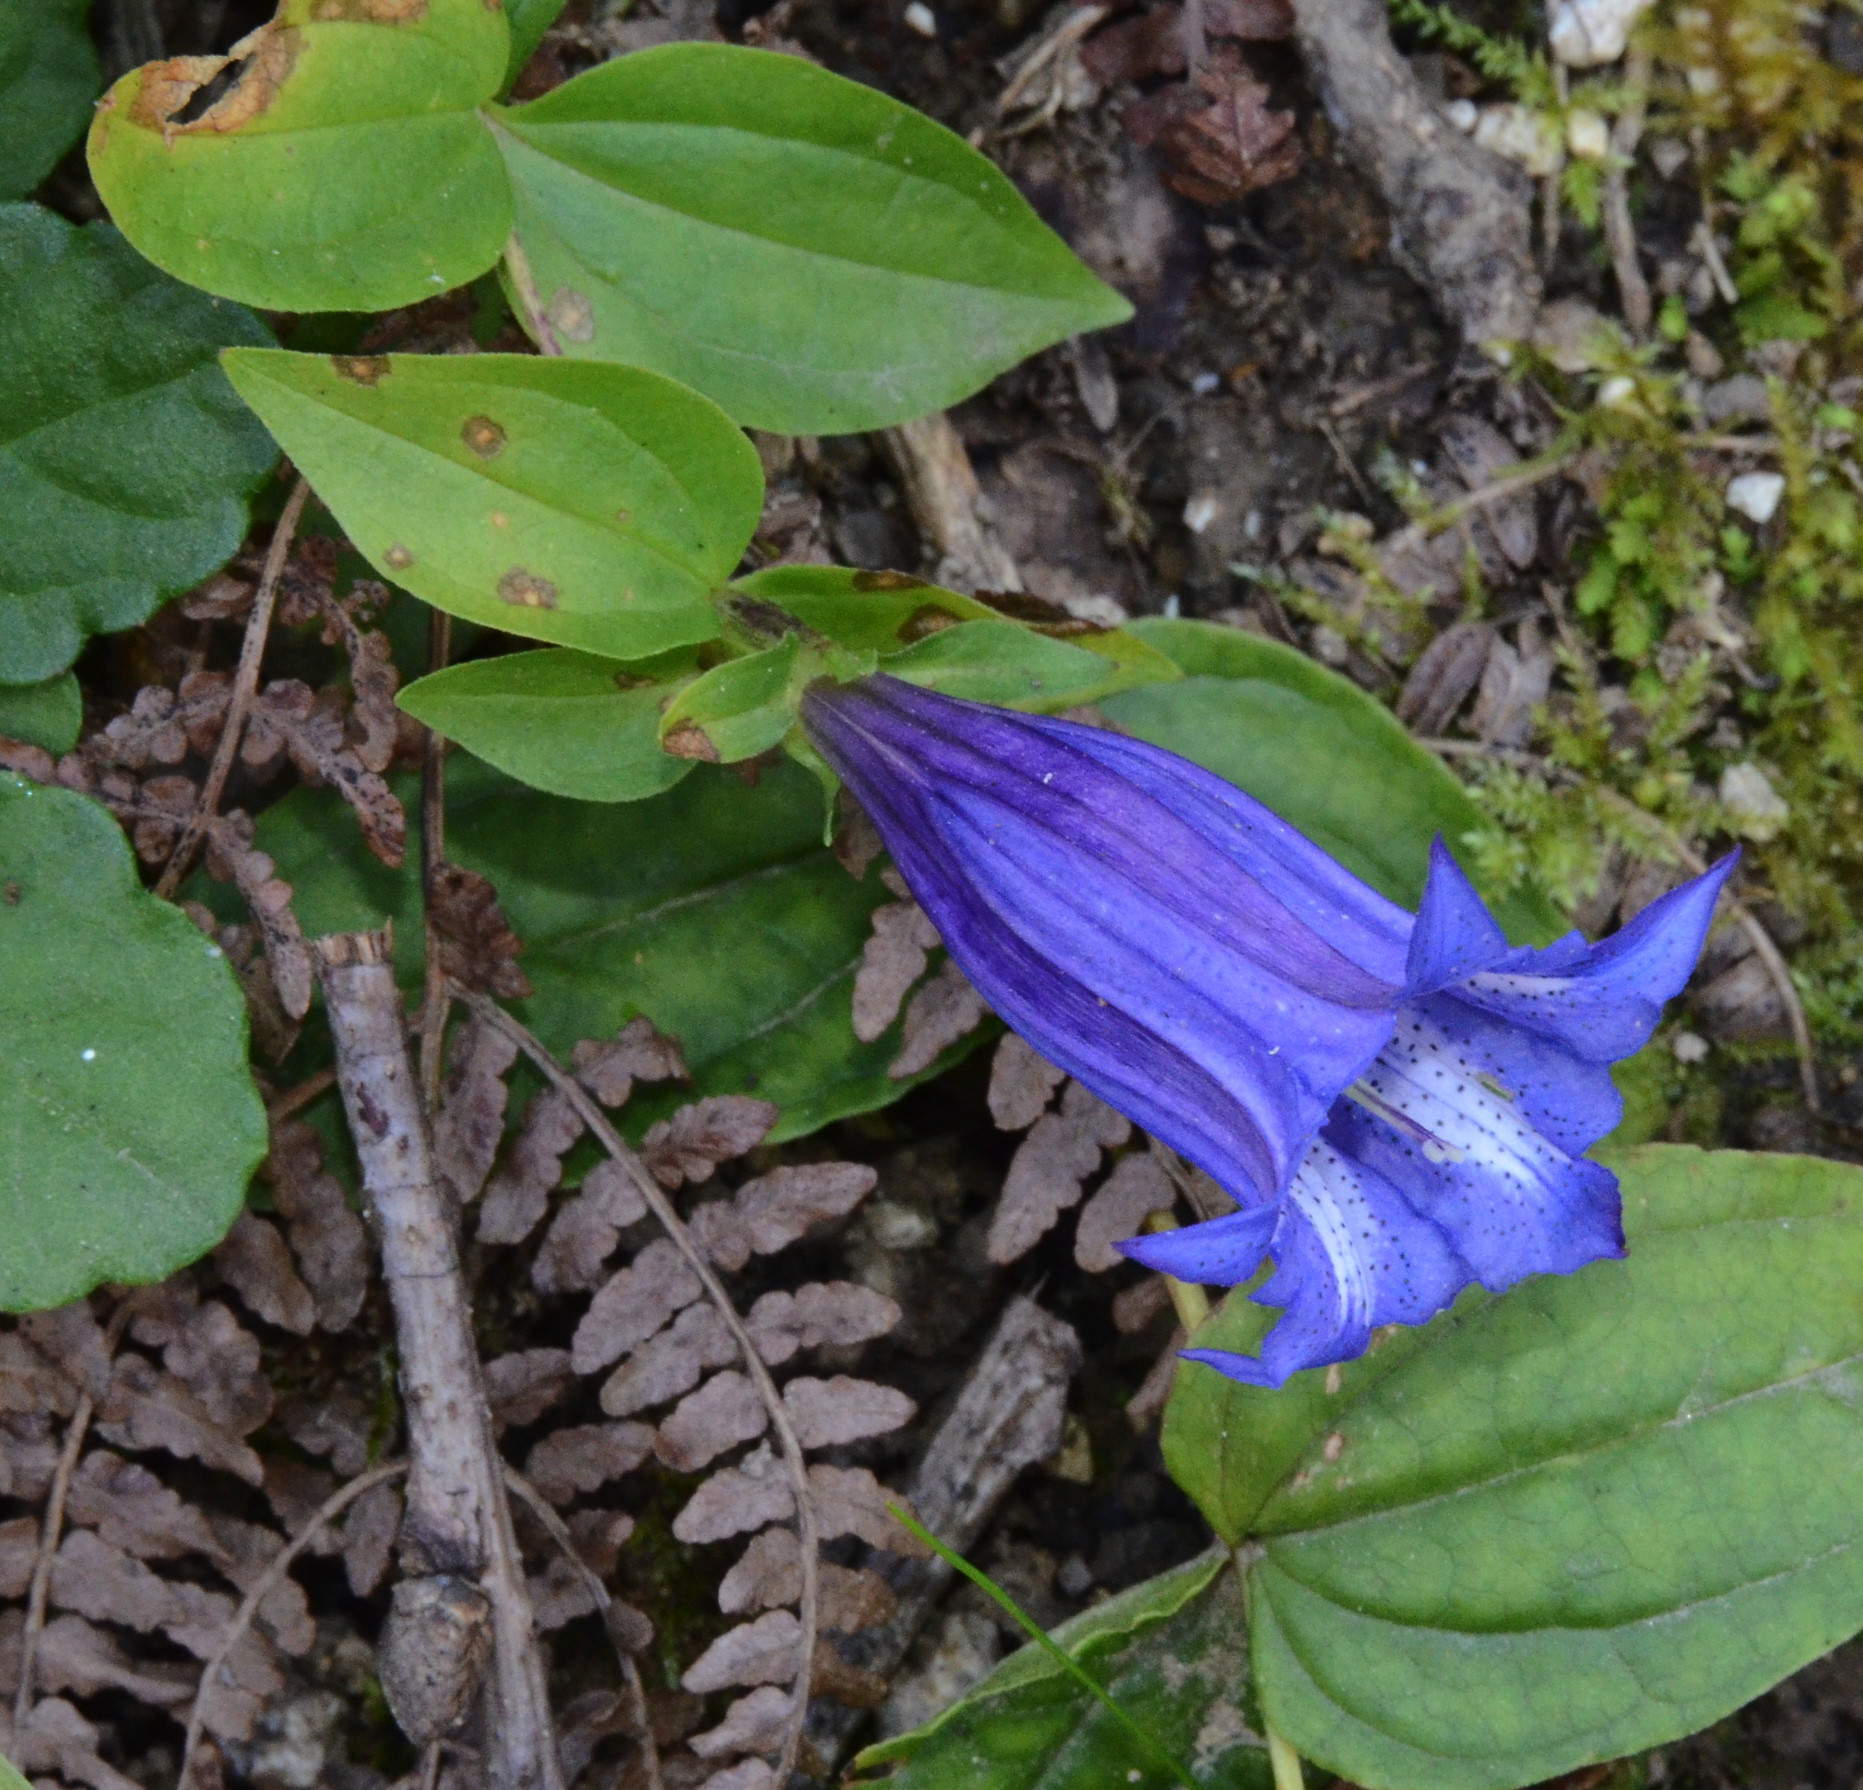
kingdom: Plantae
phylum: Tracheophyta
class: Magnoliopsida
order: Gentianales
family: Gentianaceae
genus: Gentiana
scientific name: Gentiana asclepiadea
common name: Willow gentian
